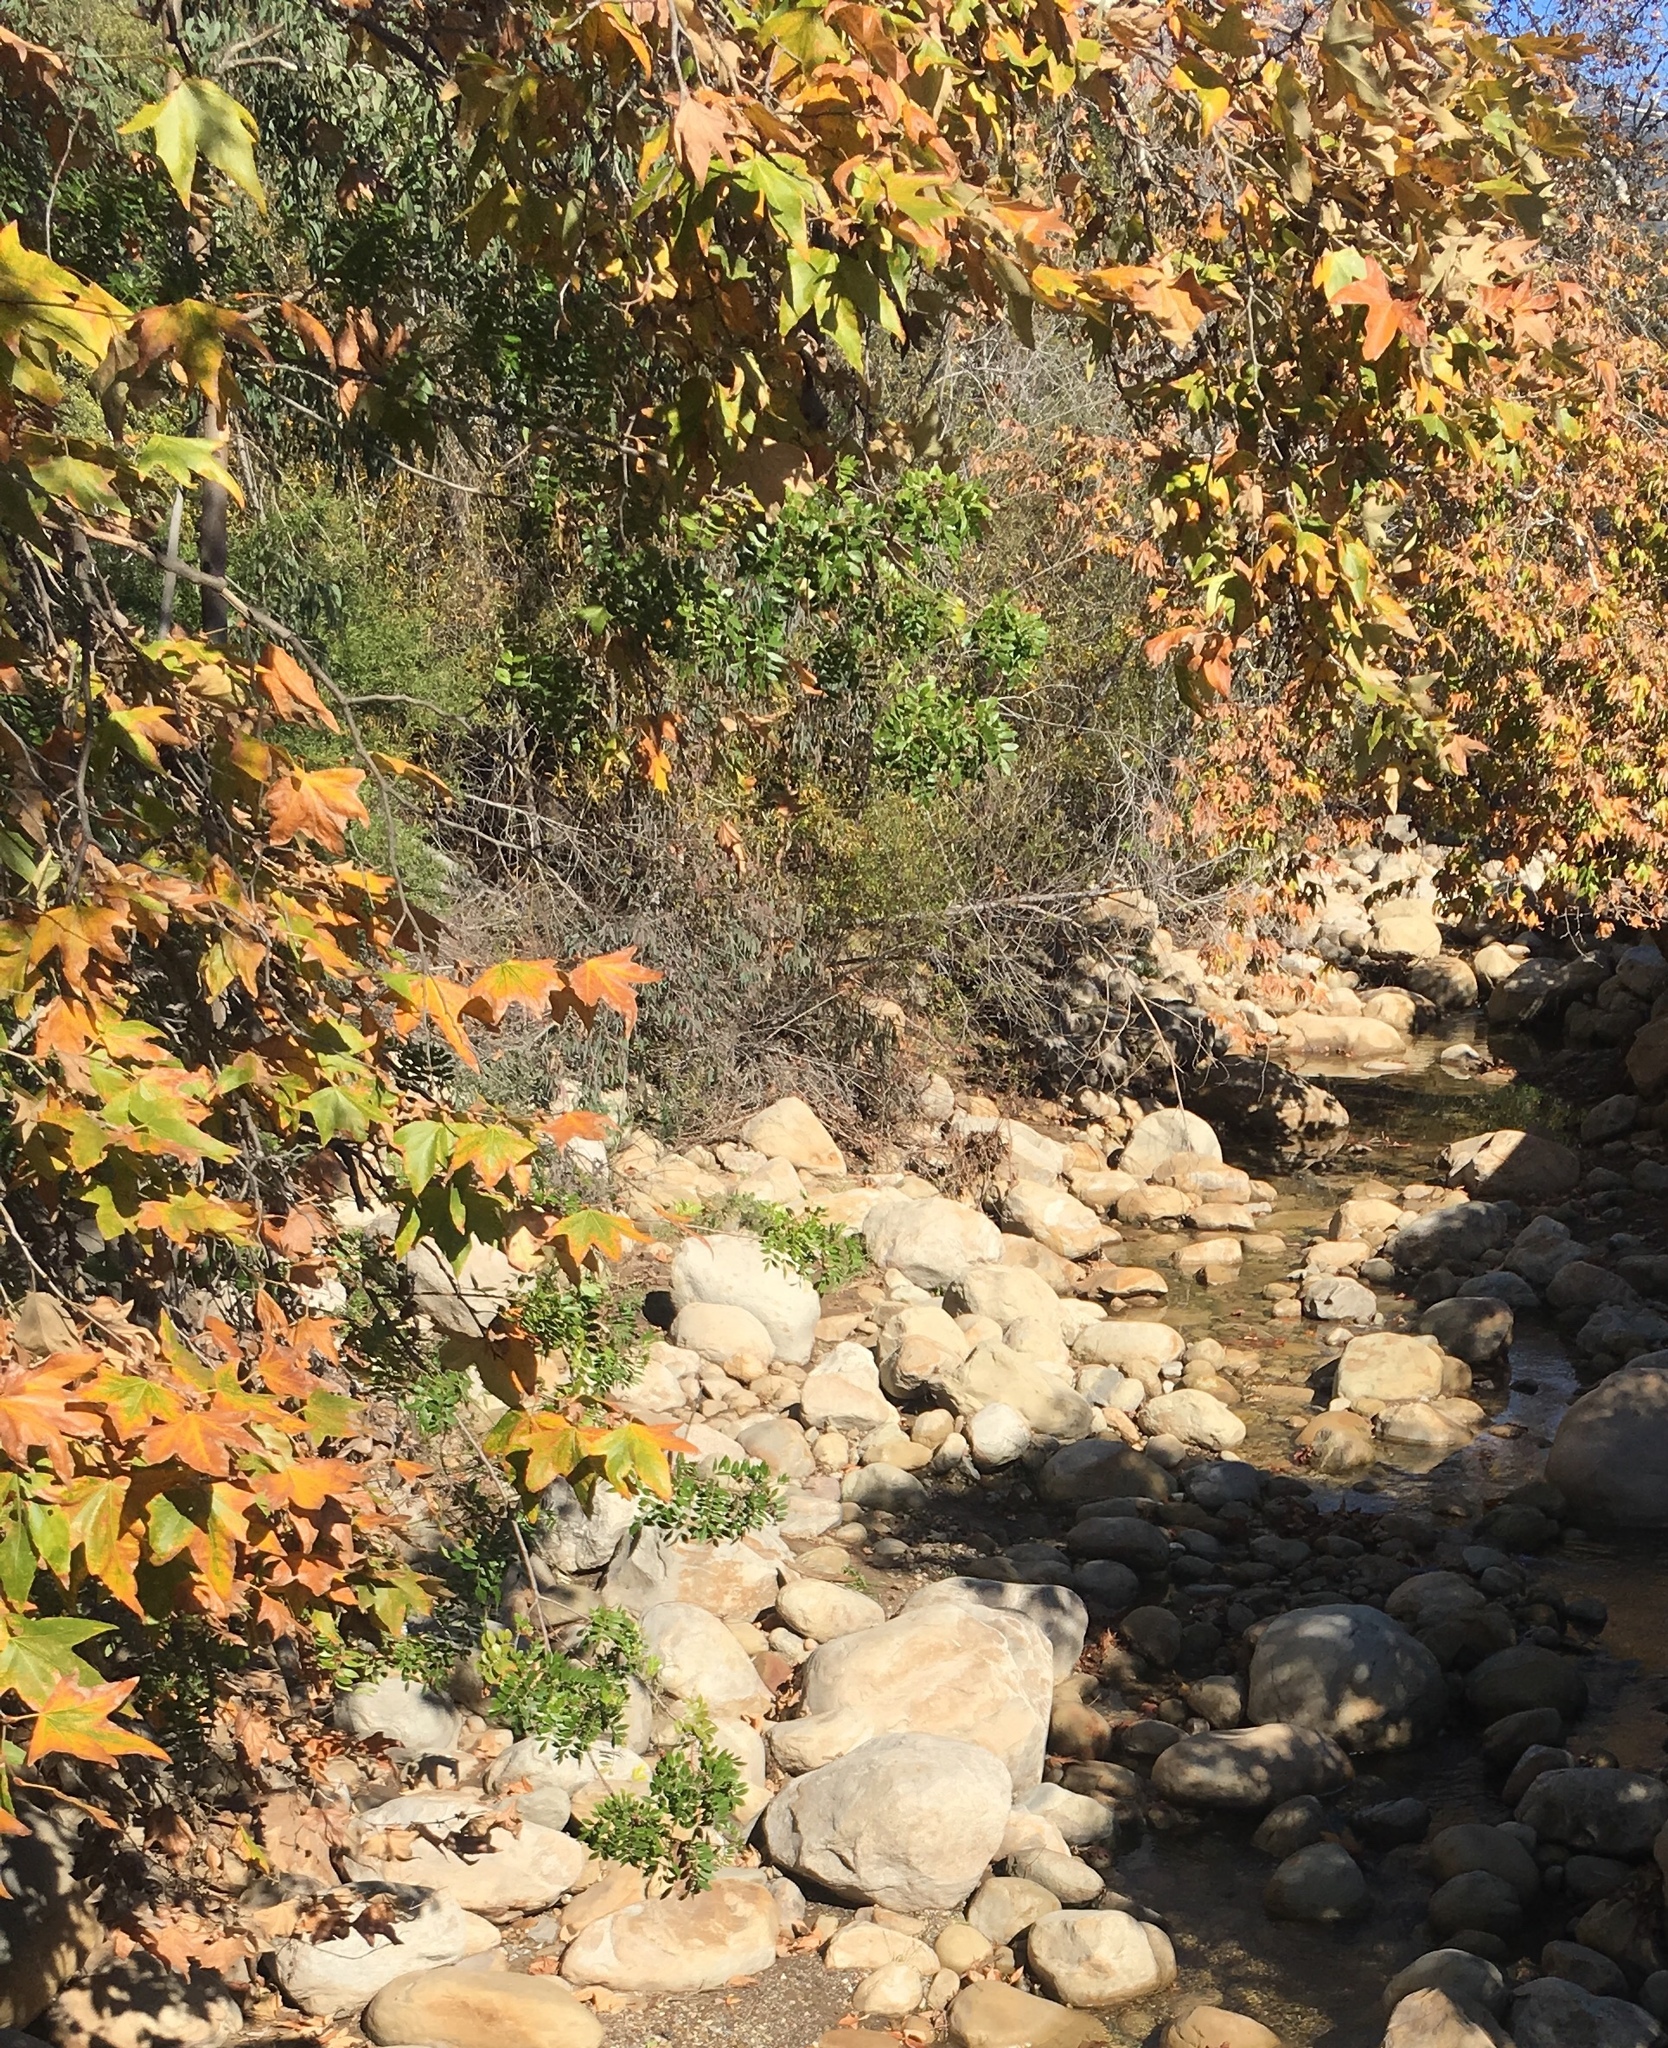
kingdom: Plantae
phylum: Tracheophyta
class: Magnoliopsida
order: Proteales
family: Platanaceae
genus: Platanus
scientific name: Platanus racemosa
